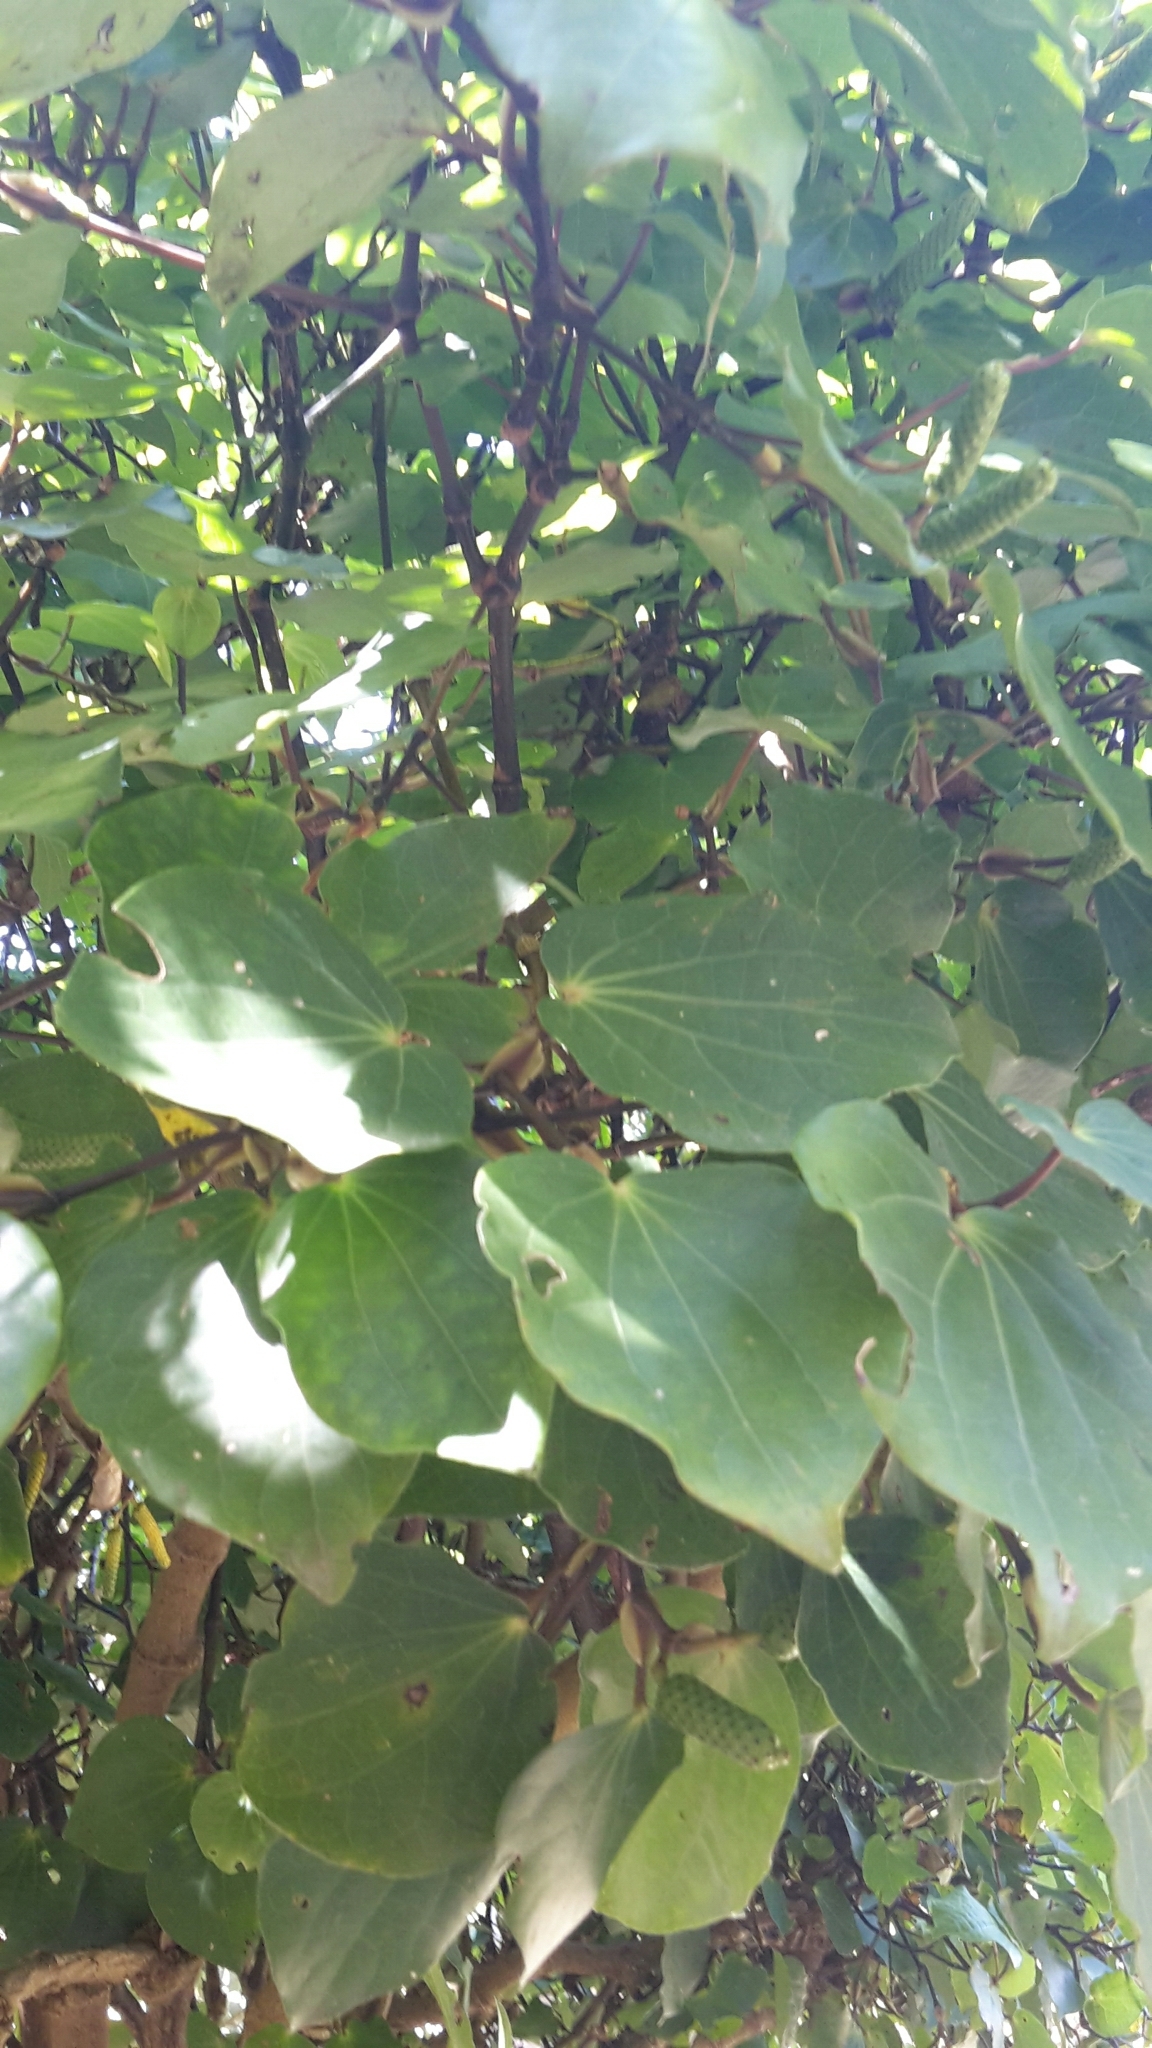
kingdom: Plantae
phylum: Tracheophyta
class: Magnoliopsida
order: Piperales
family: Piperaceae
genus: Macropiper
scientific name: Macropiper excelsum
